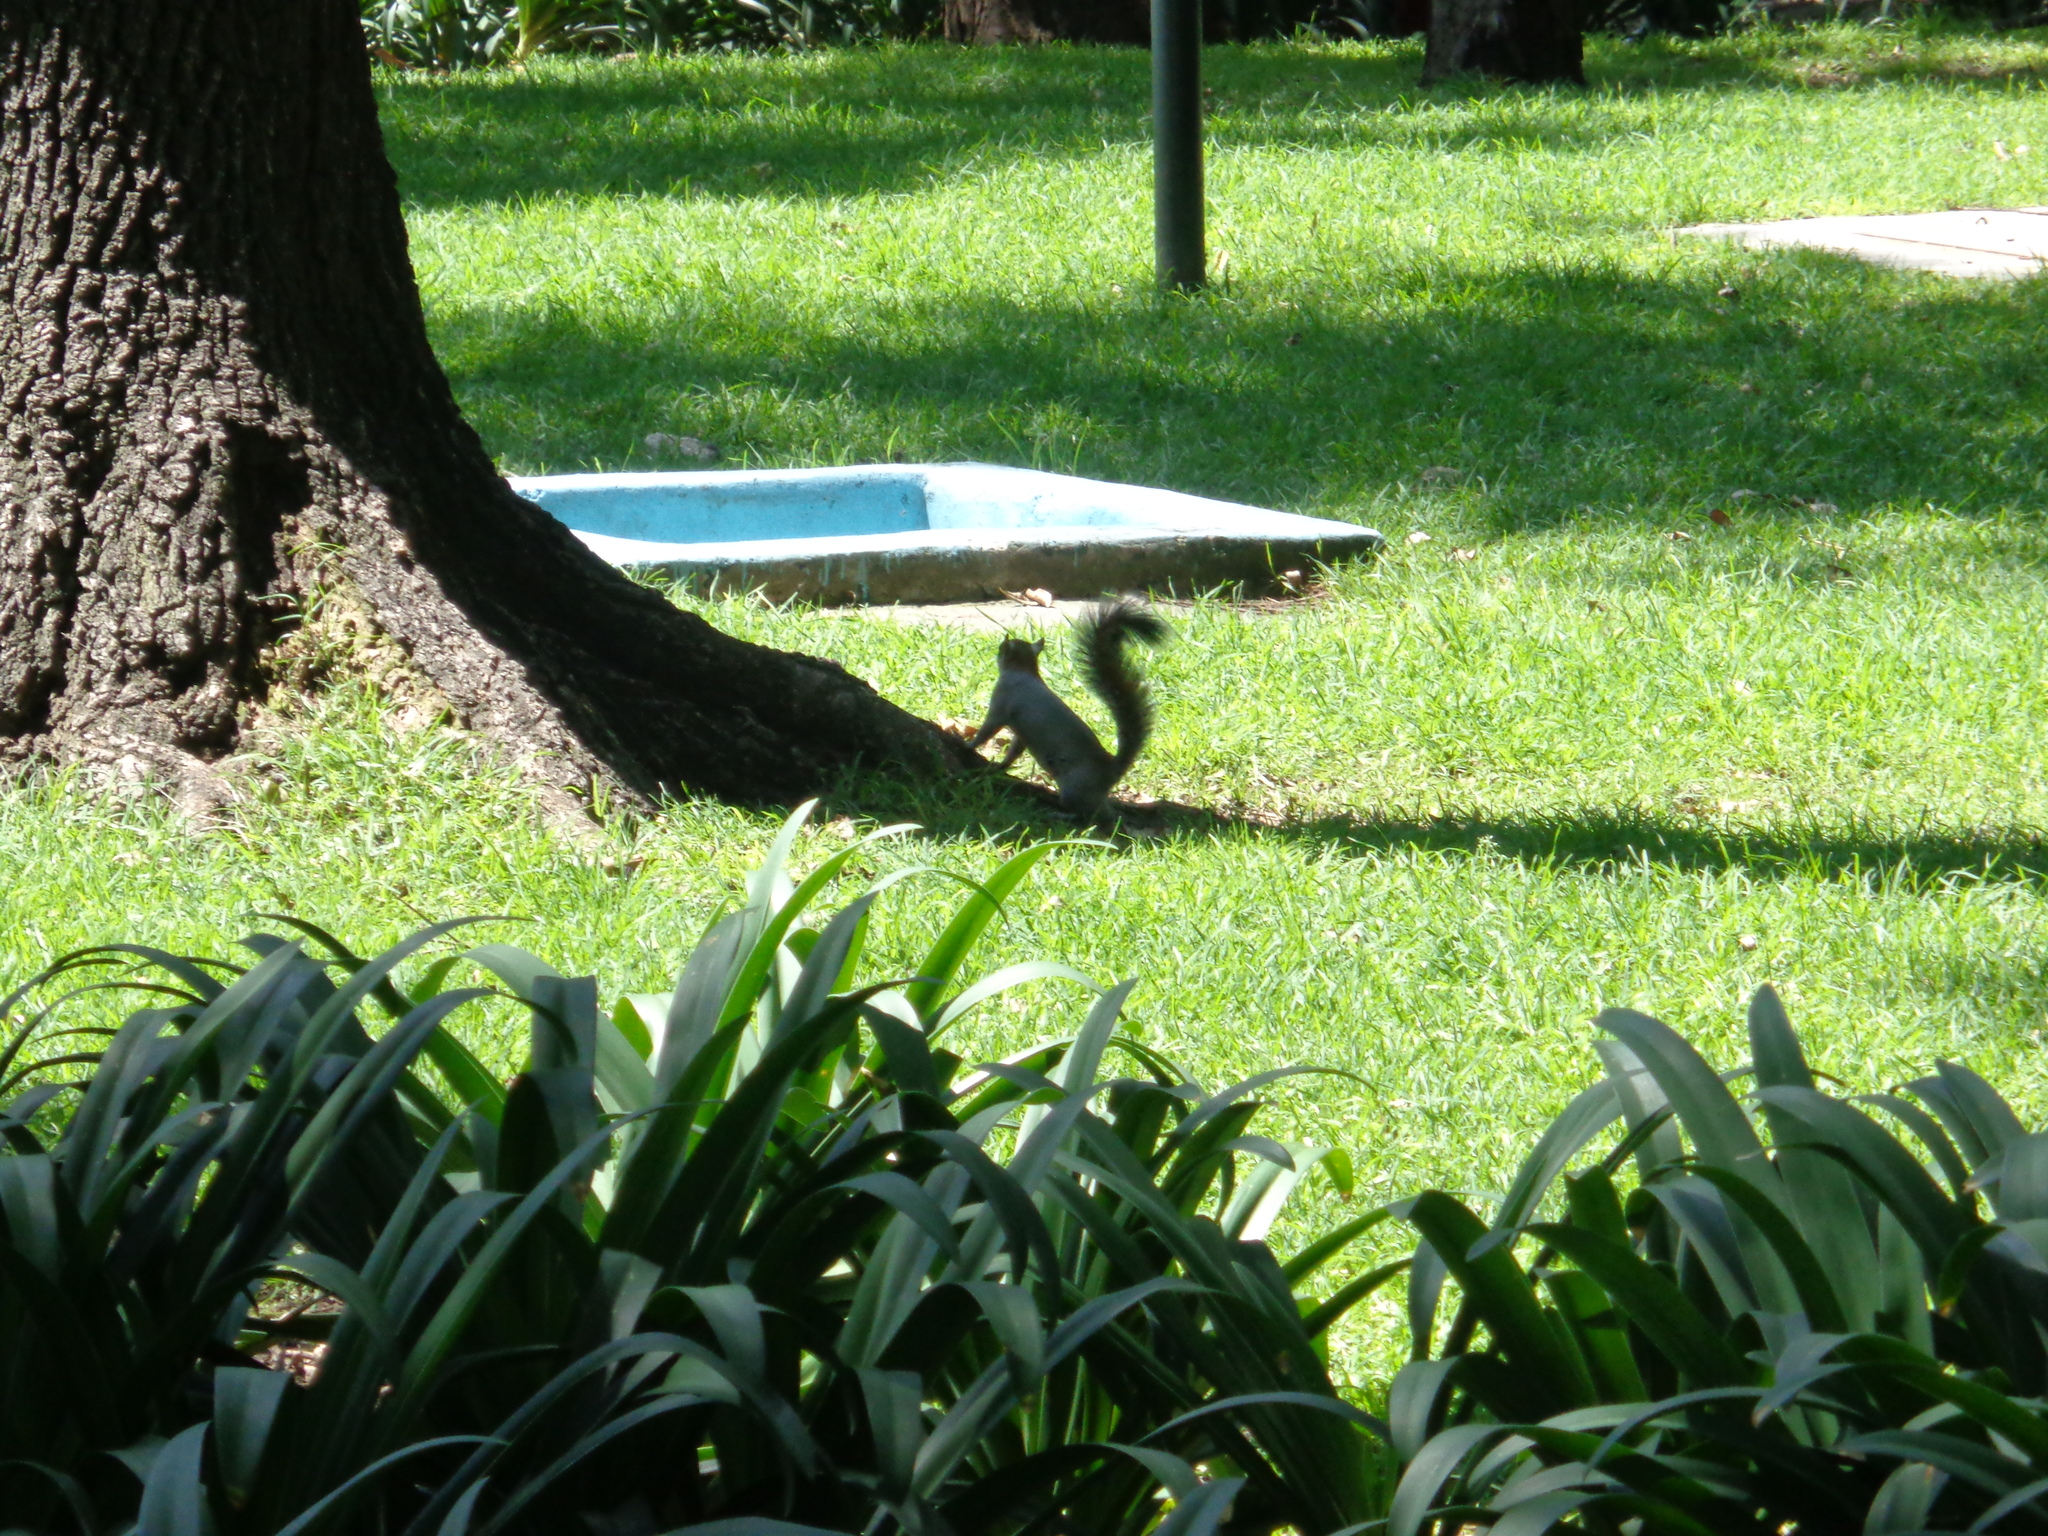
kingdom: Animalia
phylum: Chordata
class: Mammalia
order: Rodentia
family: Sciuridae
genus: Sciurus
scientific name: Sciurus aureogaster
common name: Red-bellied squirrel
